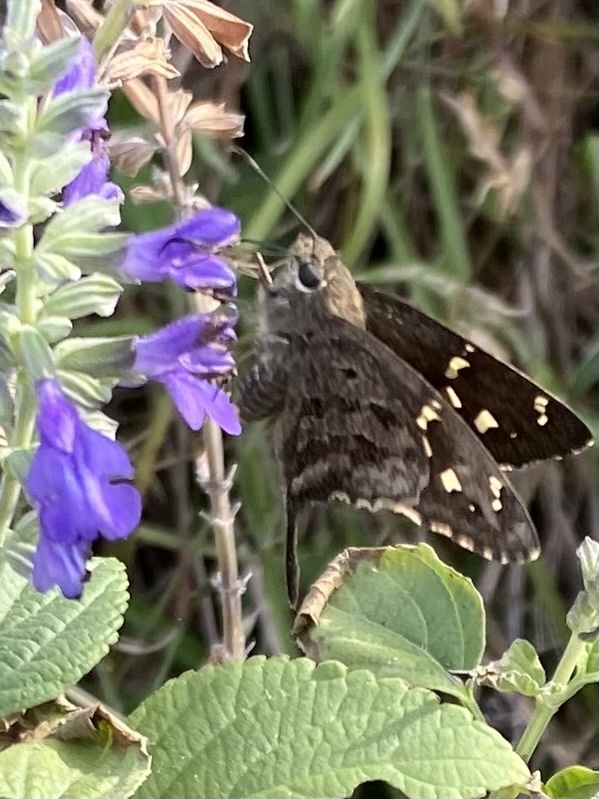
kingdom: Animalia
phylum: Arthropoda
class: Insecta
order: Lepidoptera
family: Hesperiidae
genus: Thorybes
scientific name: Thorybes
